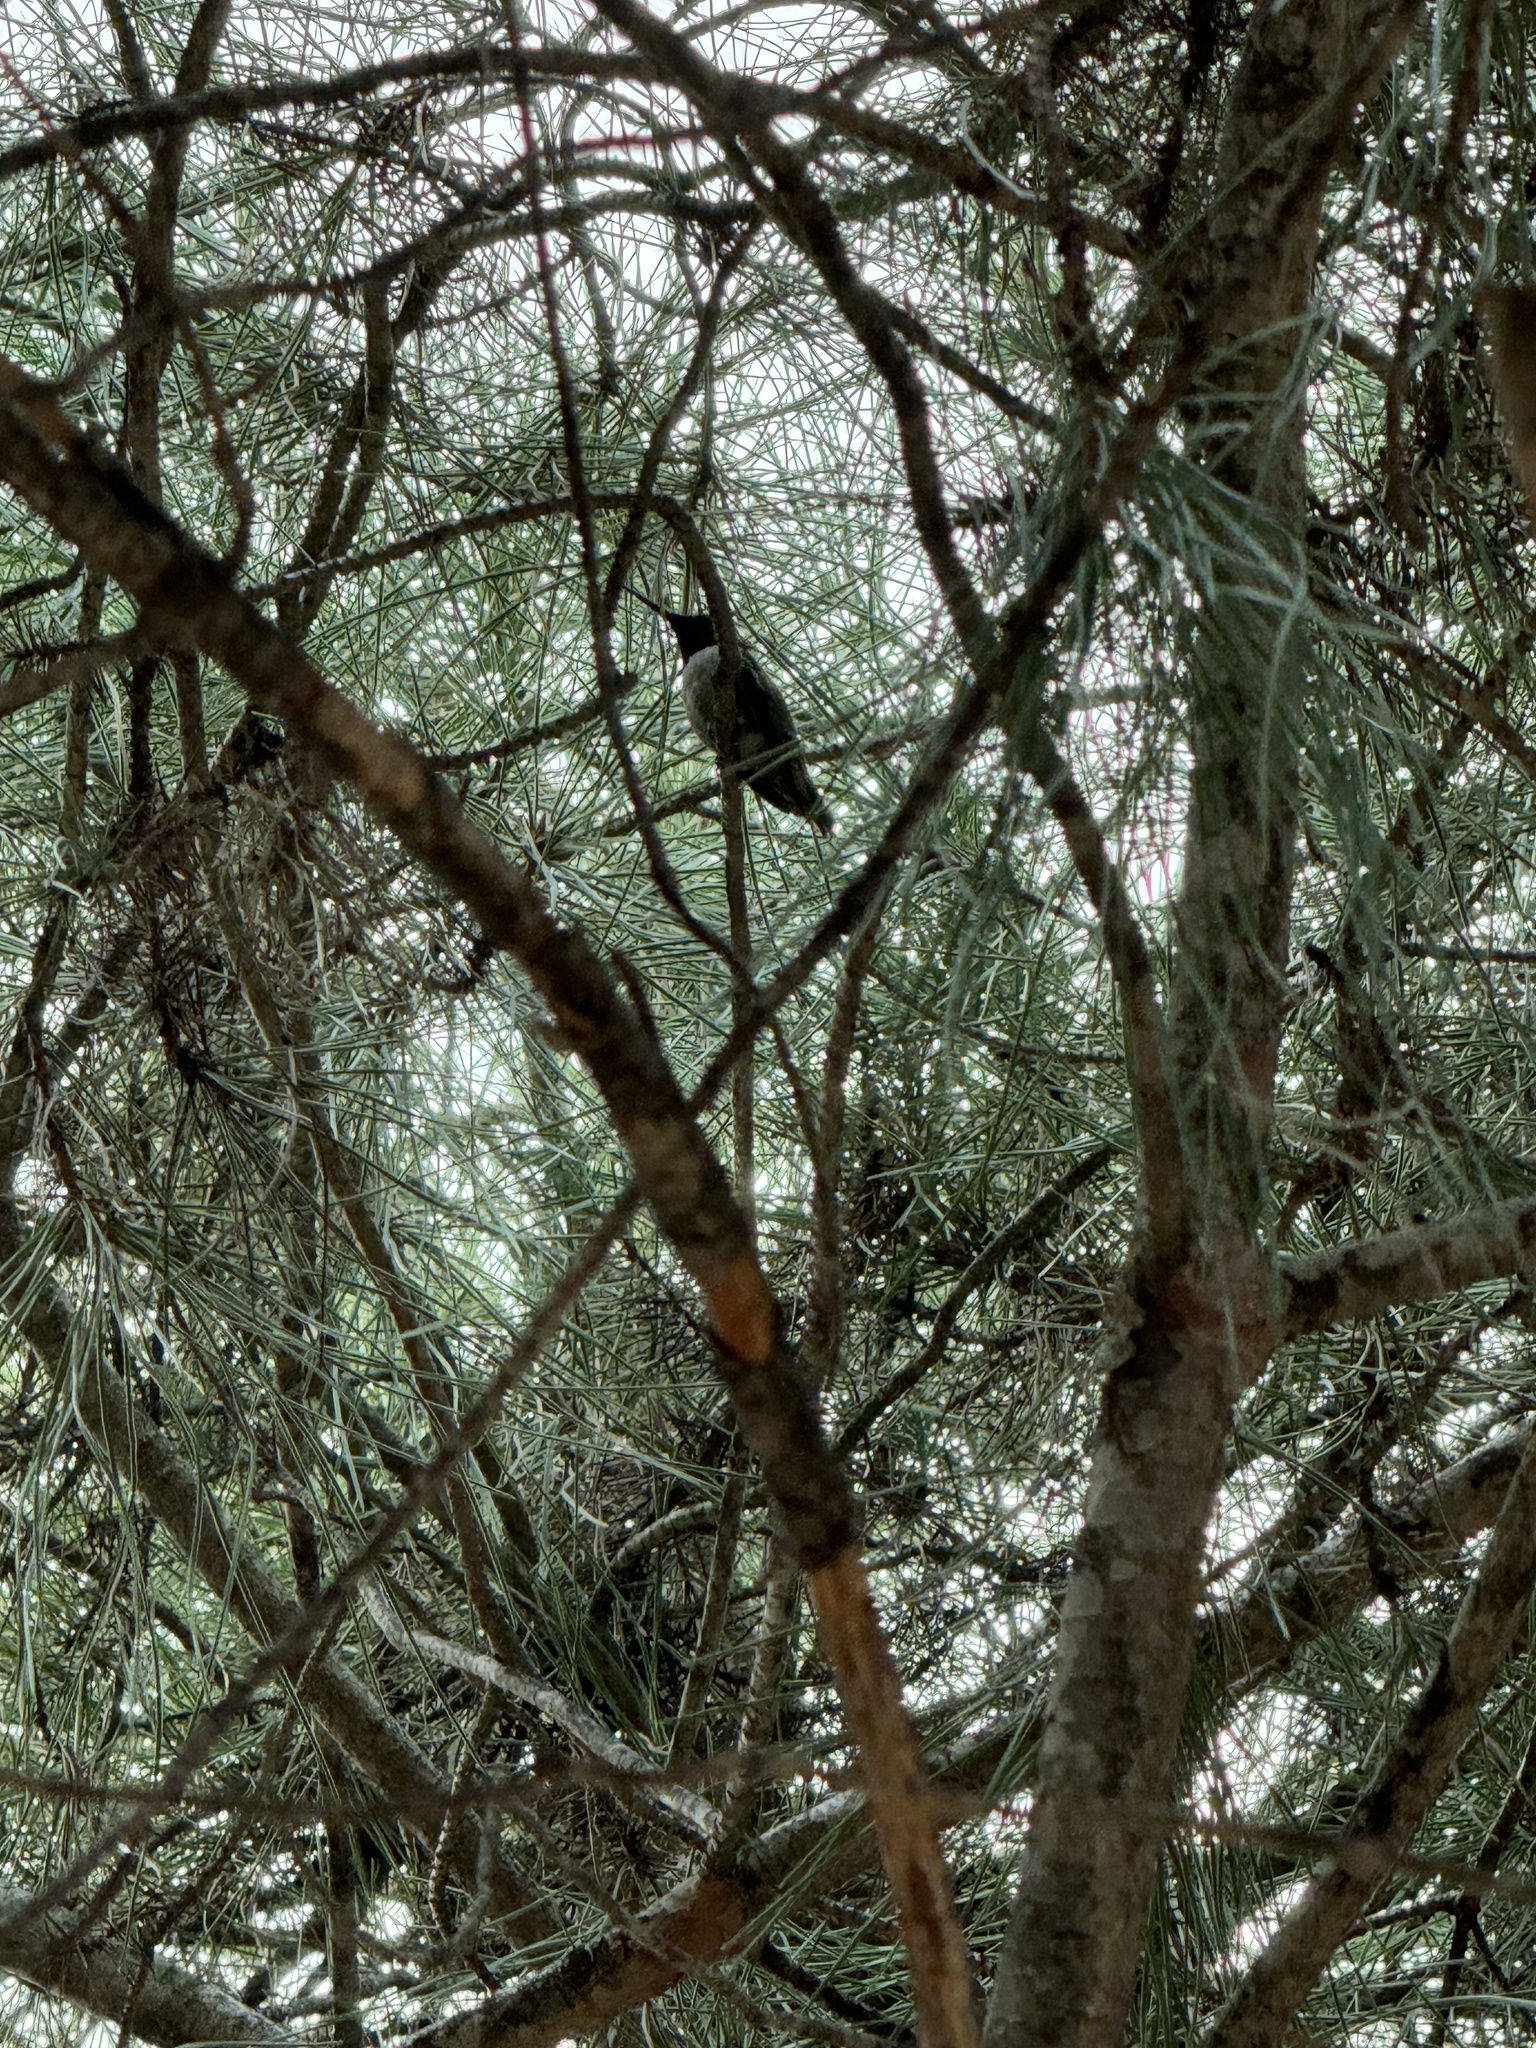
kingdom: Animalia
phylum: Chordata
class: Aves
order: Apodiformes
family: Trochilidae
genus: Calypte
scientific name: Calypte anna
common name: Anna's hummingbird
